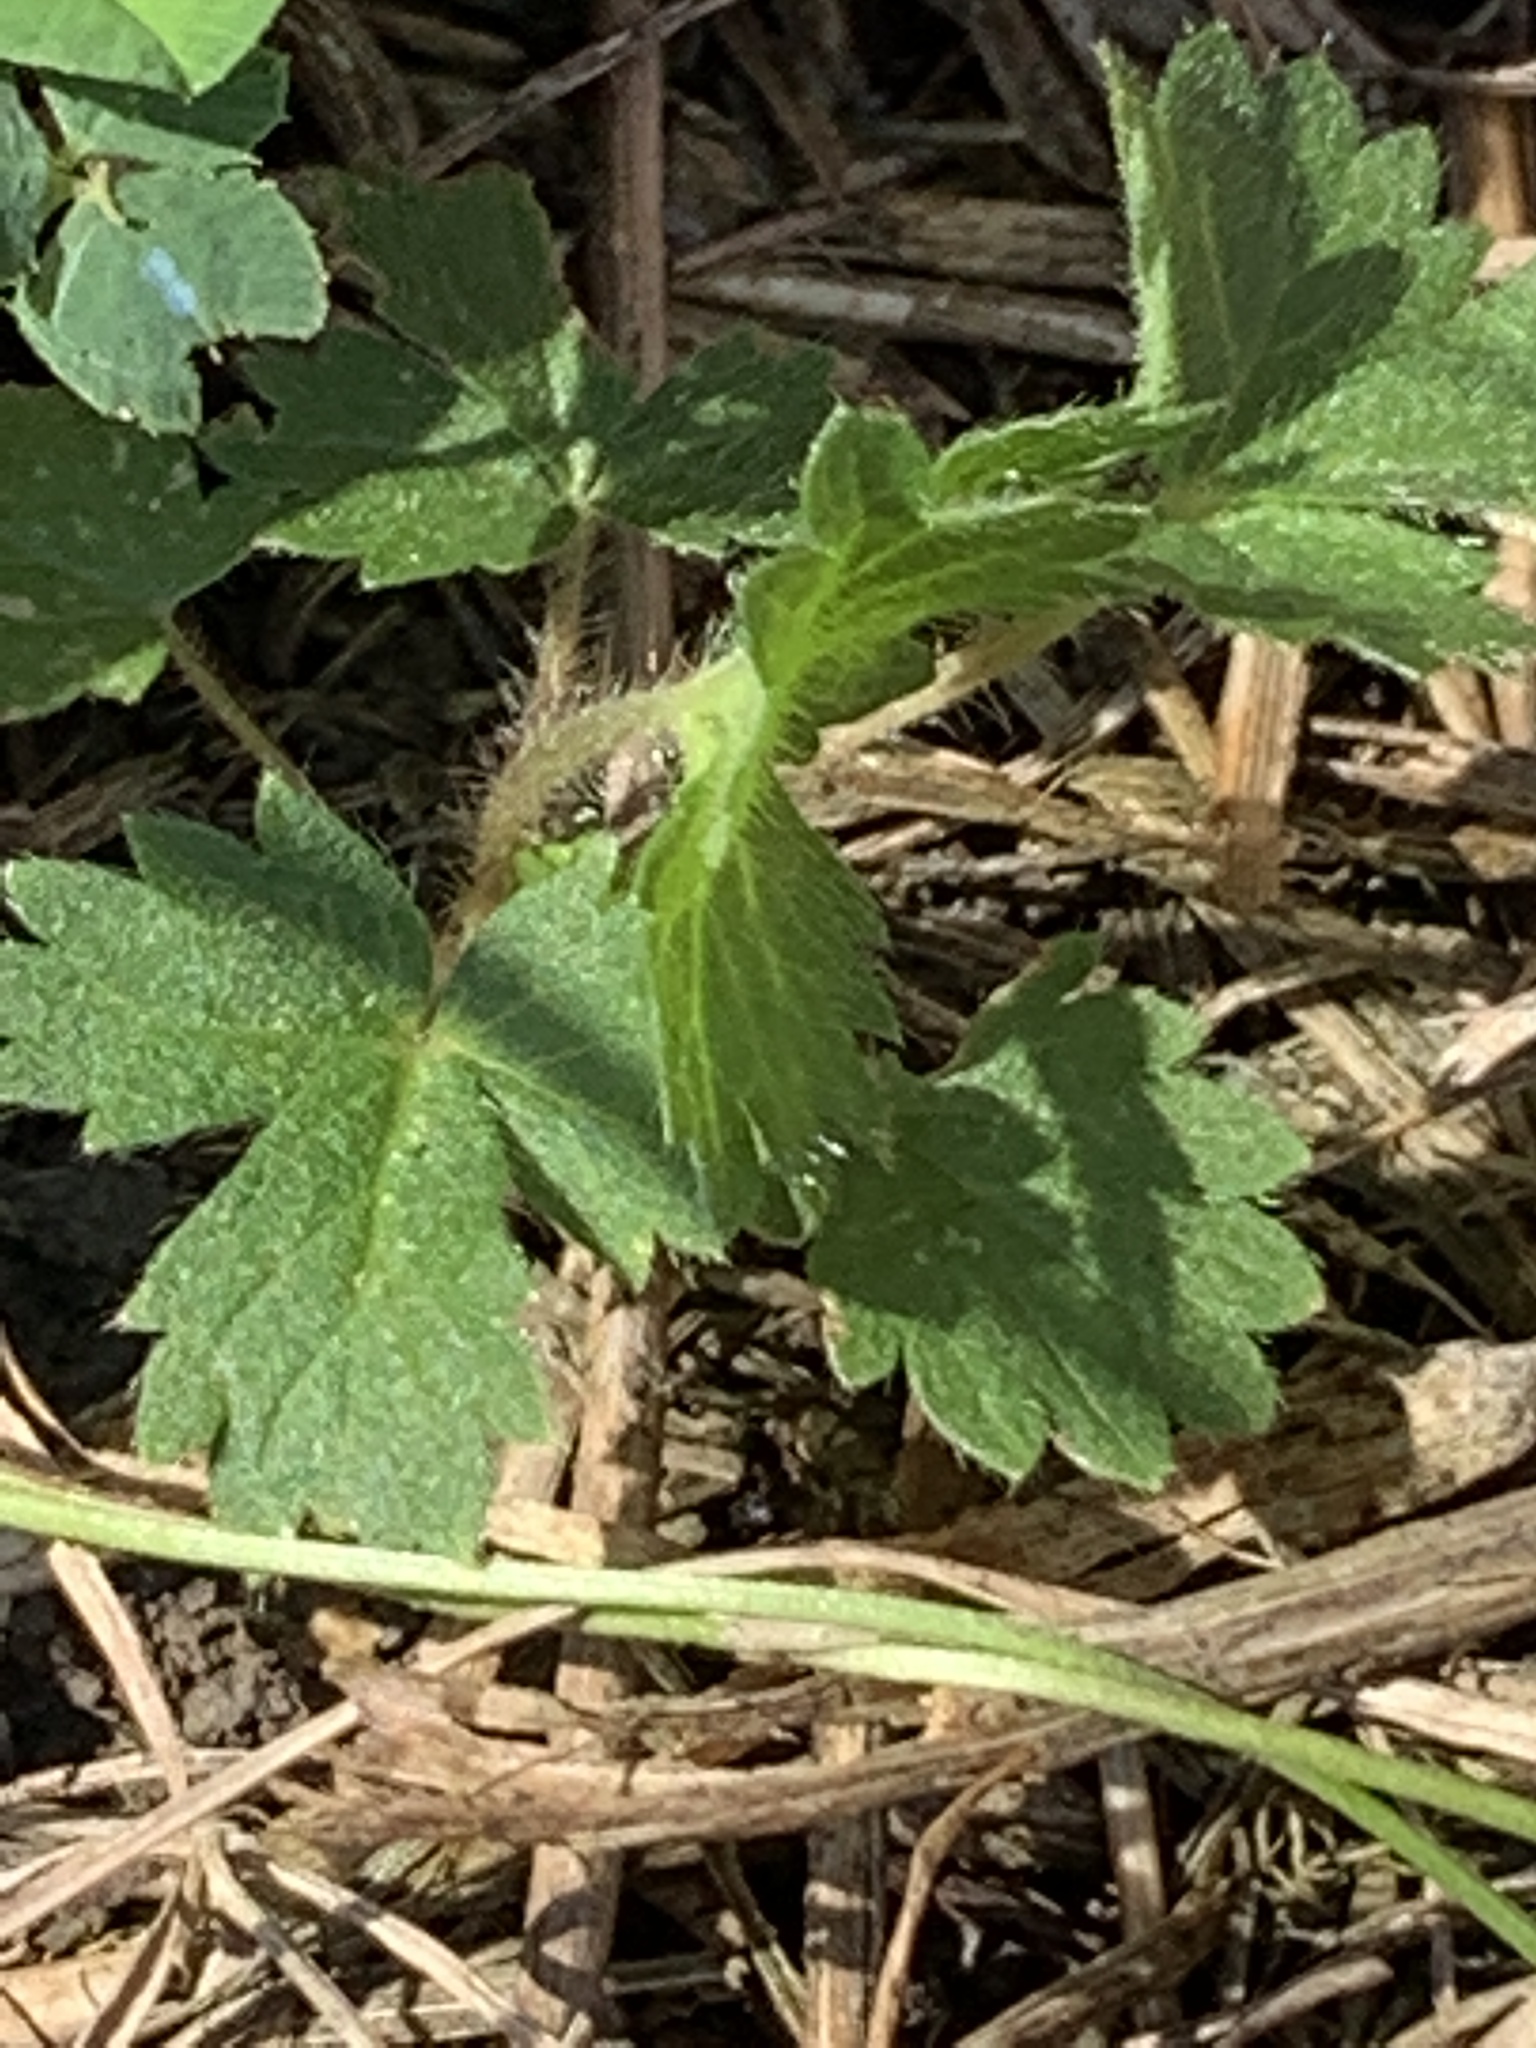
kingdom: Plantae
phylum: Tracheophyta
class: Magnoliopsida
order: Rosales
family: Rosaceae
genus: Potentilla
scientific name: Potentilla norvegica
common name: Ternate-leaved cinquefoil
